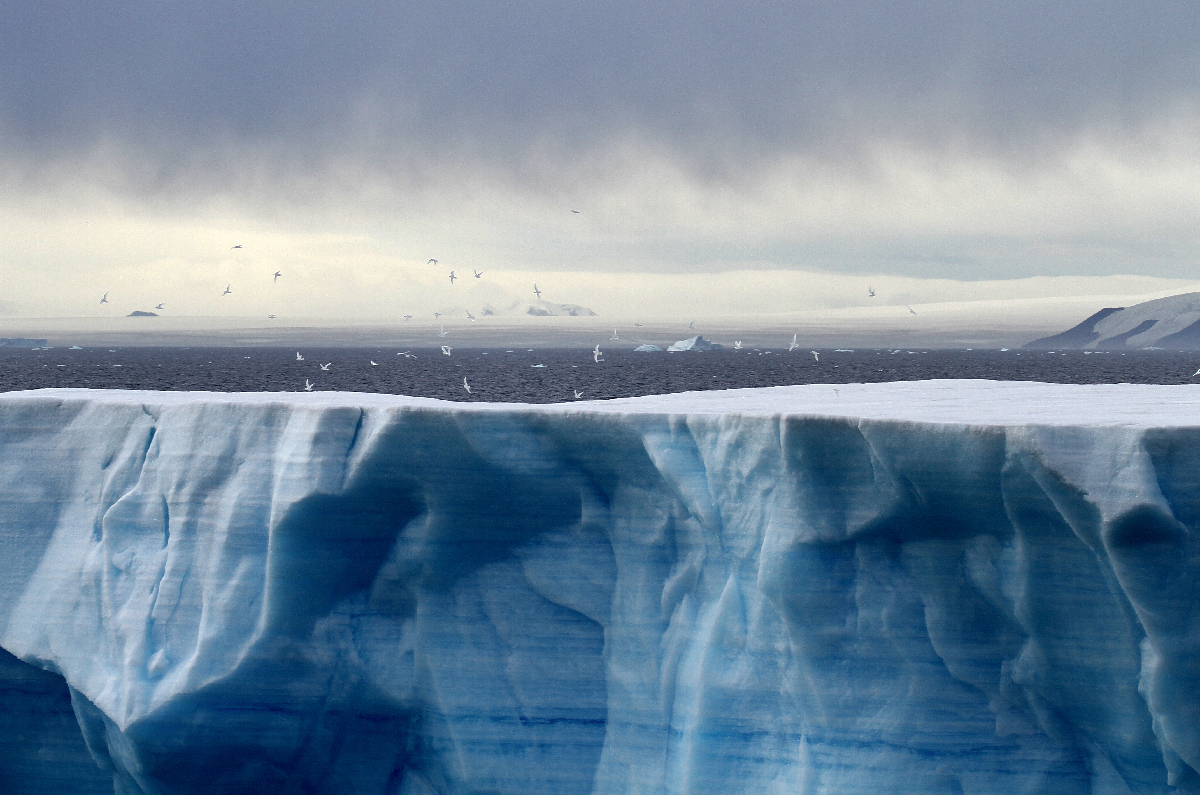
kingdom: Animalia
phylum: Chordata
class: Aves
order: Procellariiformes
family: Procellariidae
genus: Pagodroma
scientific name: Pagodroma nivea
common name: Snow petrel
